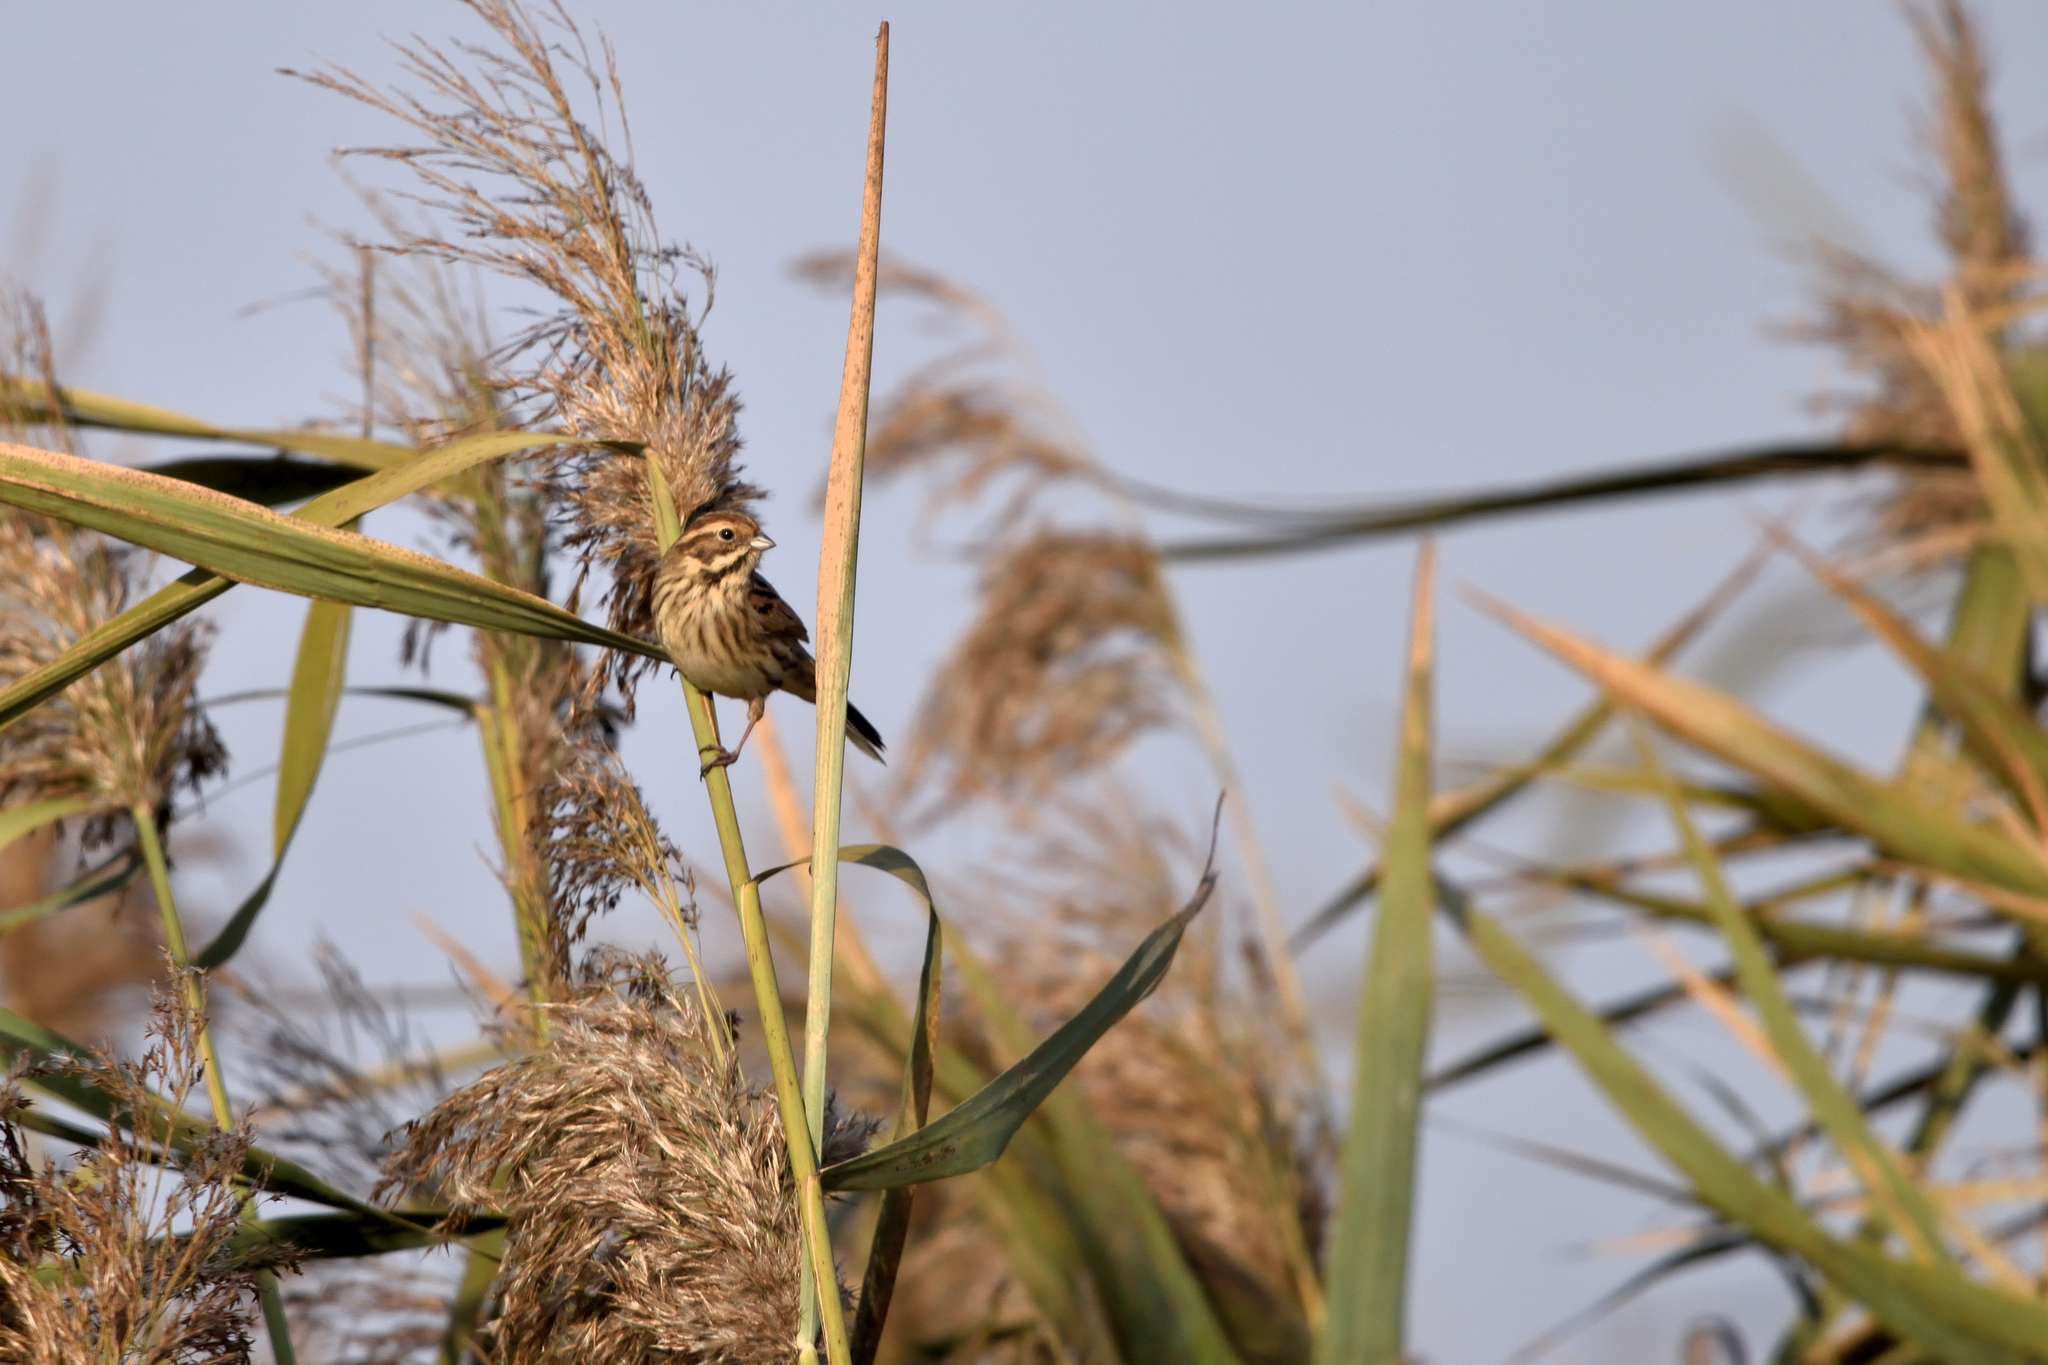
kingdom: Animalia
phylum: Chordata
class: Aves
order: Passeriformes
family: Emberizidae
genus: Emberiza
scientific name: Emberiza schoeniclus
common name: Reed bunting
